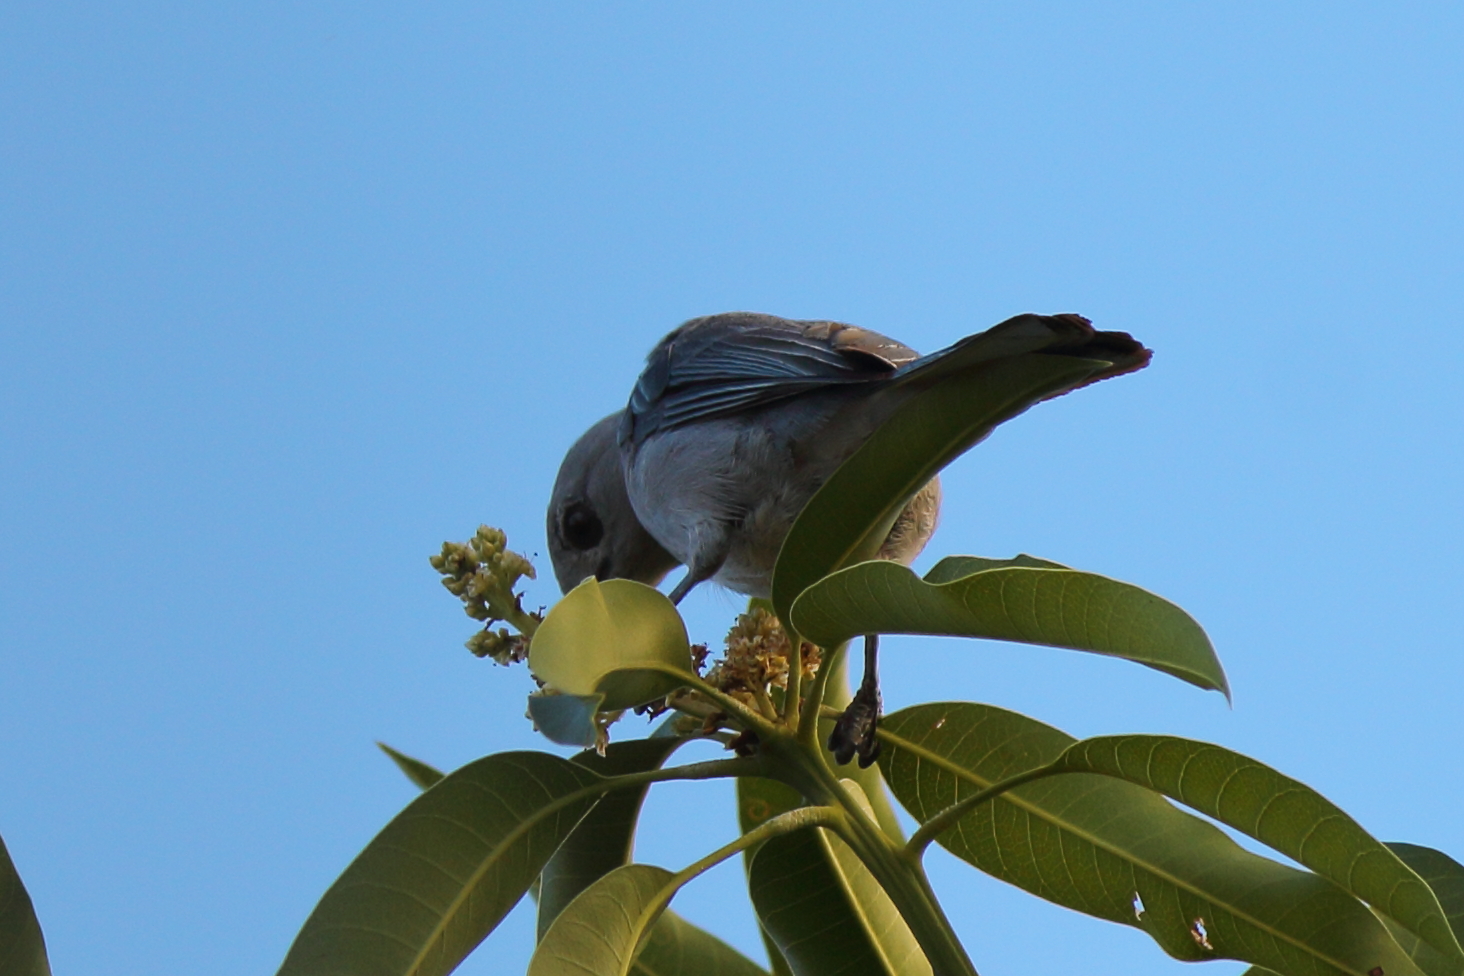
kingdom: Animalia
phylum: Chordata
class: Aves
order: Passeriformes
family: Thraupidae
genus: Thraupis
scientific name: Thraupis sayaca
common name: Sayaca tanager
